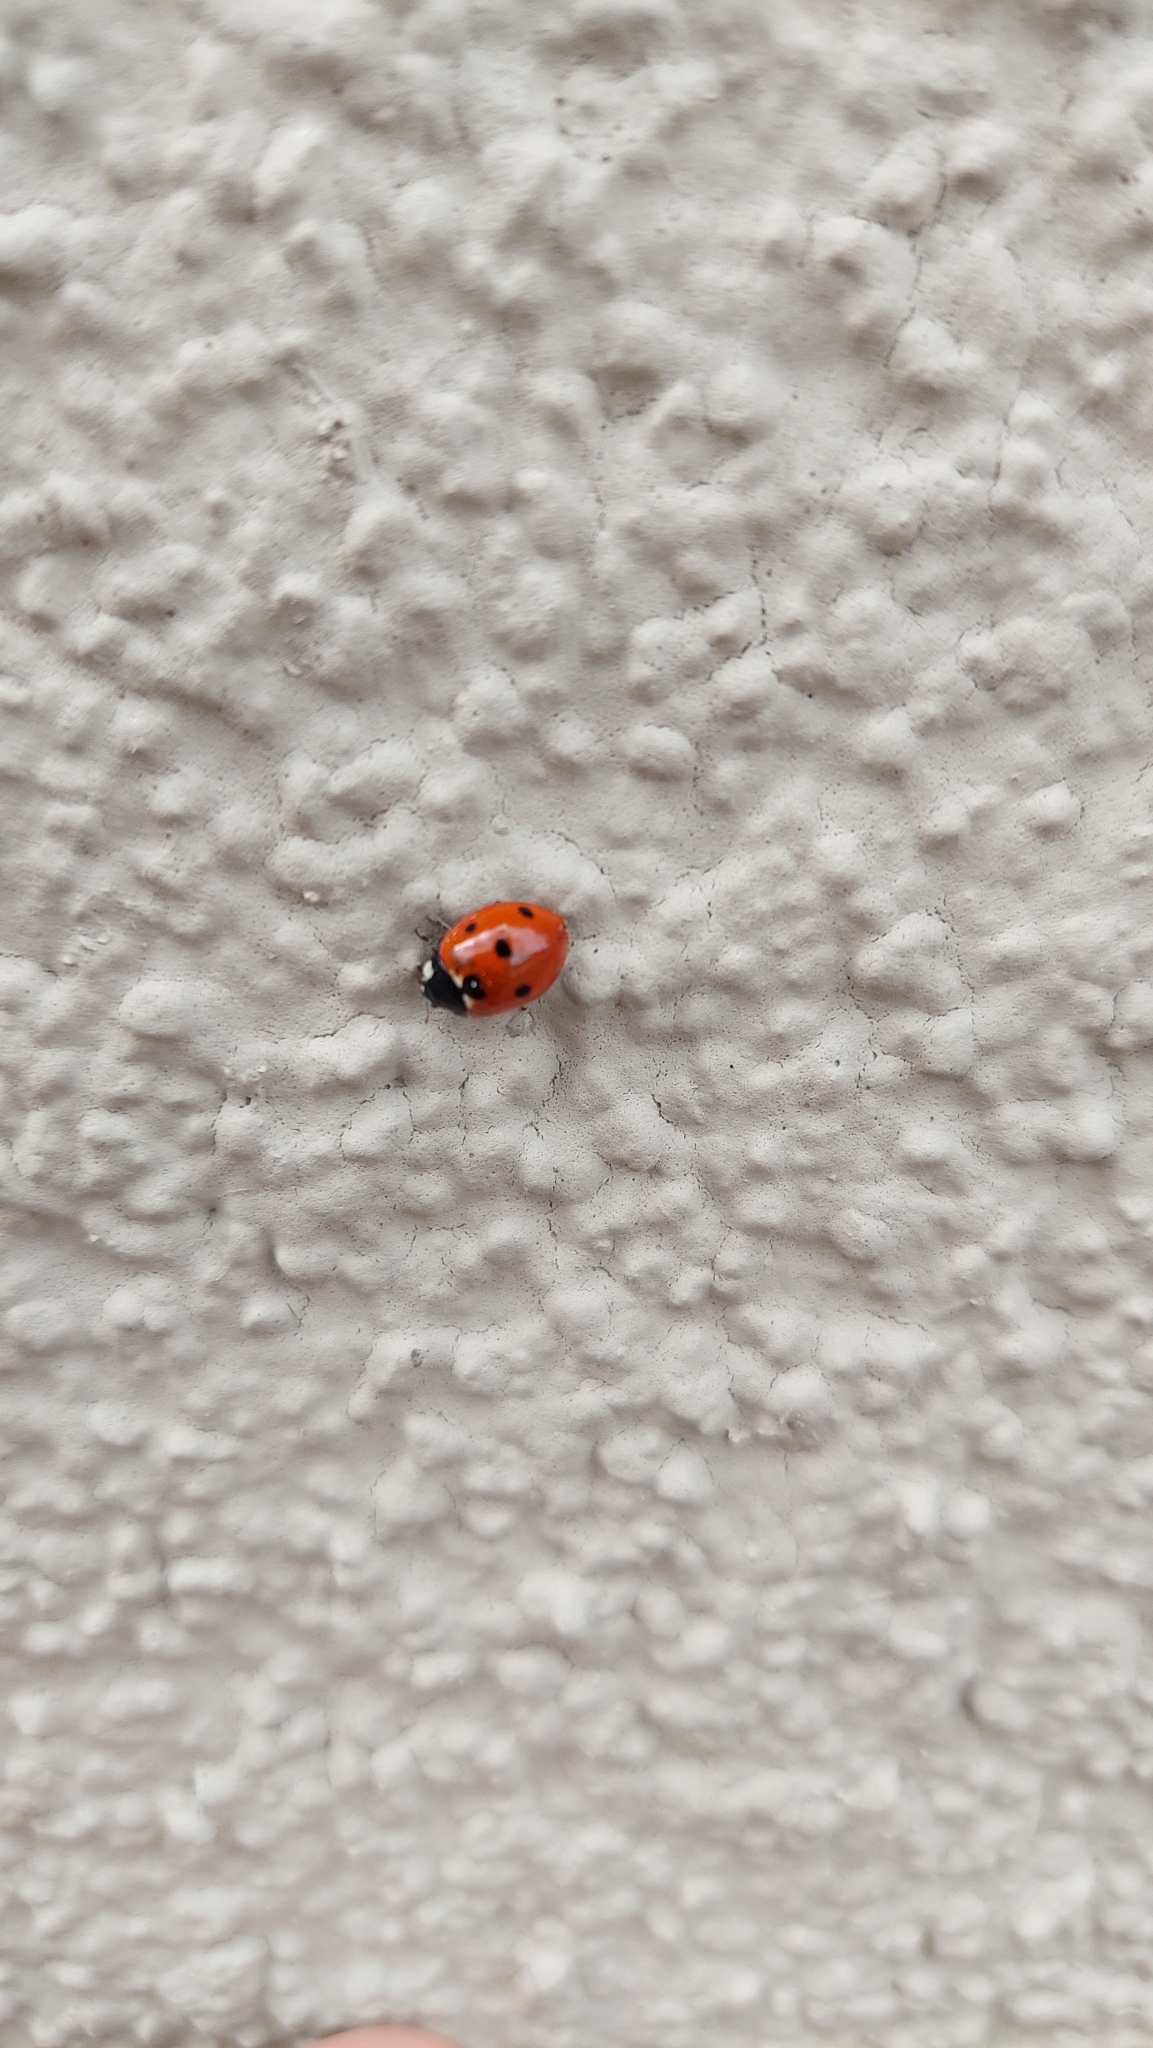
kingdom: Animalia
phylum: Arthropoda
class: Insecta
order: Coleoptera
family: Coccinellidae
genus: Coccinella
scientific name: Coccinella septempunctata
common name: Sevenspotted lady beetle
